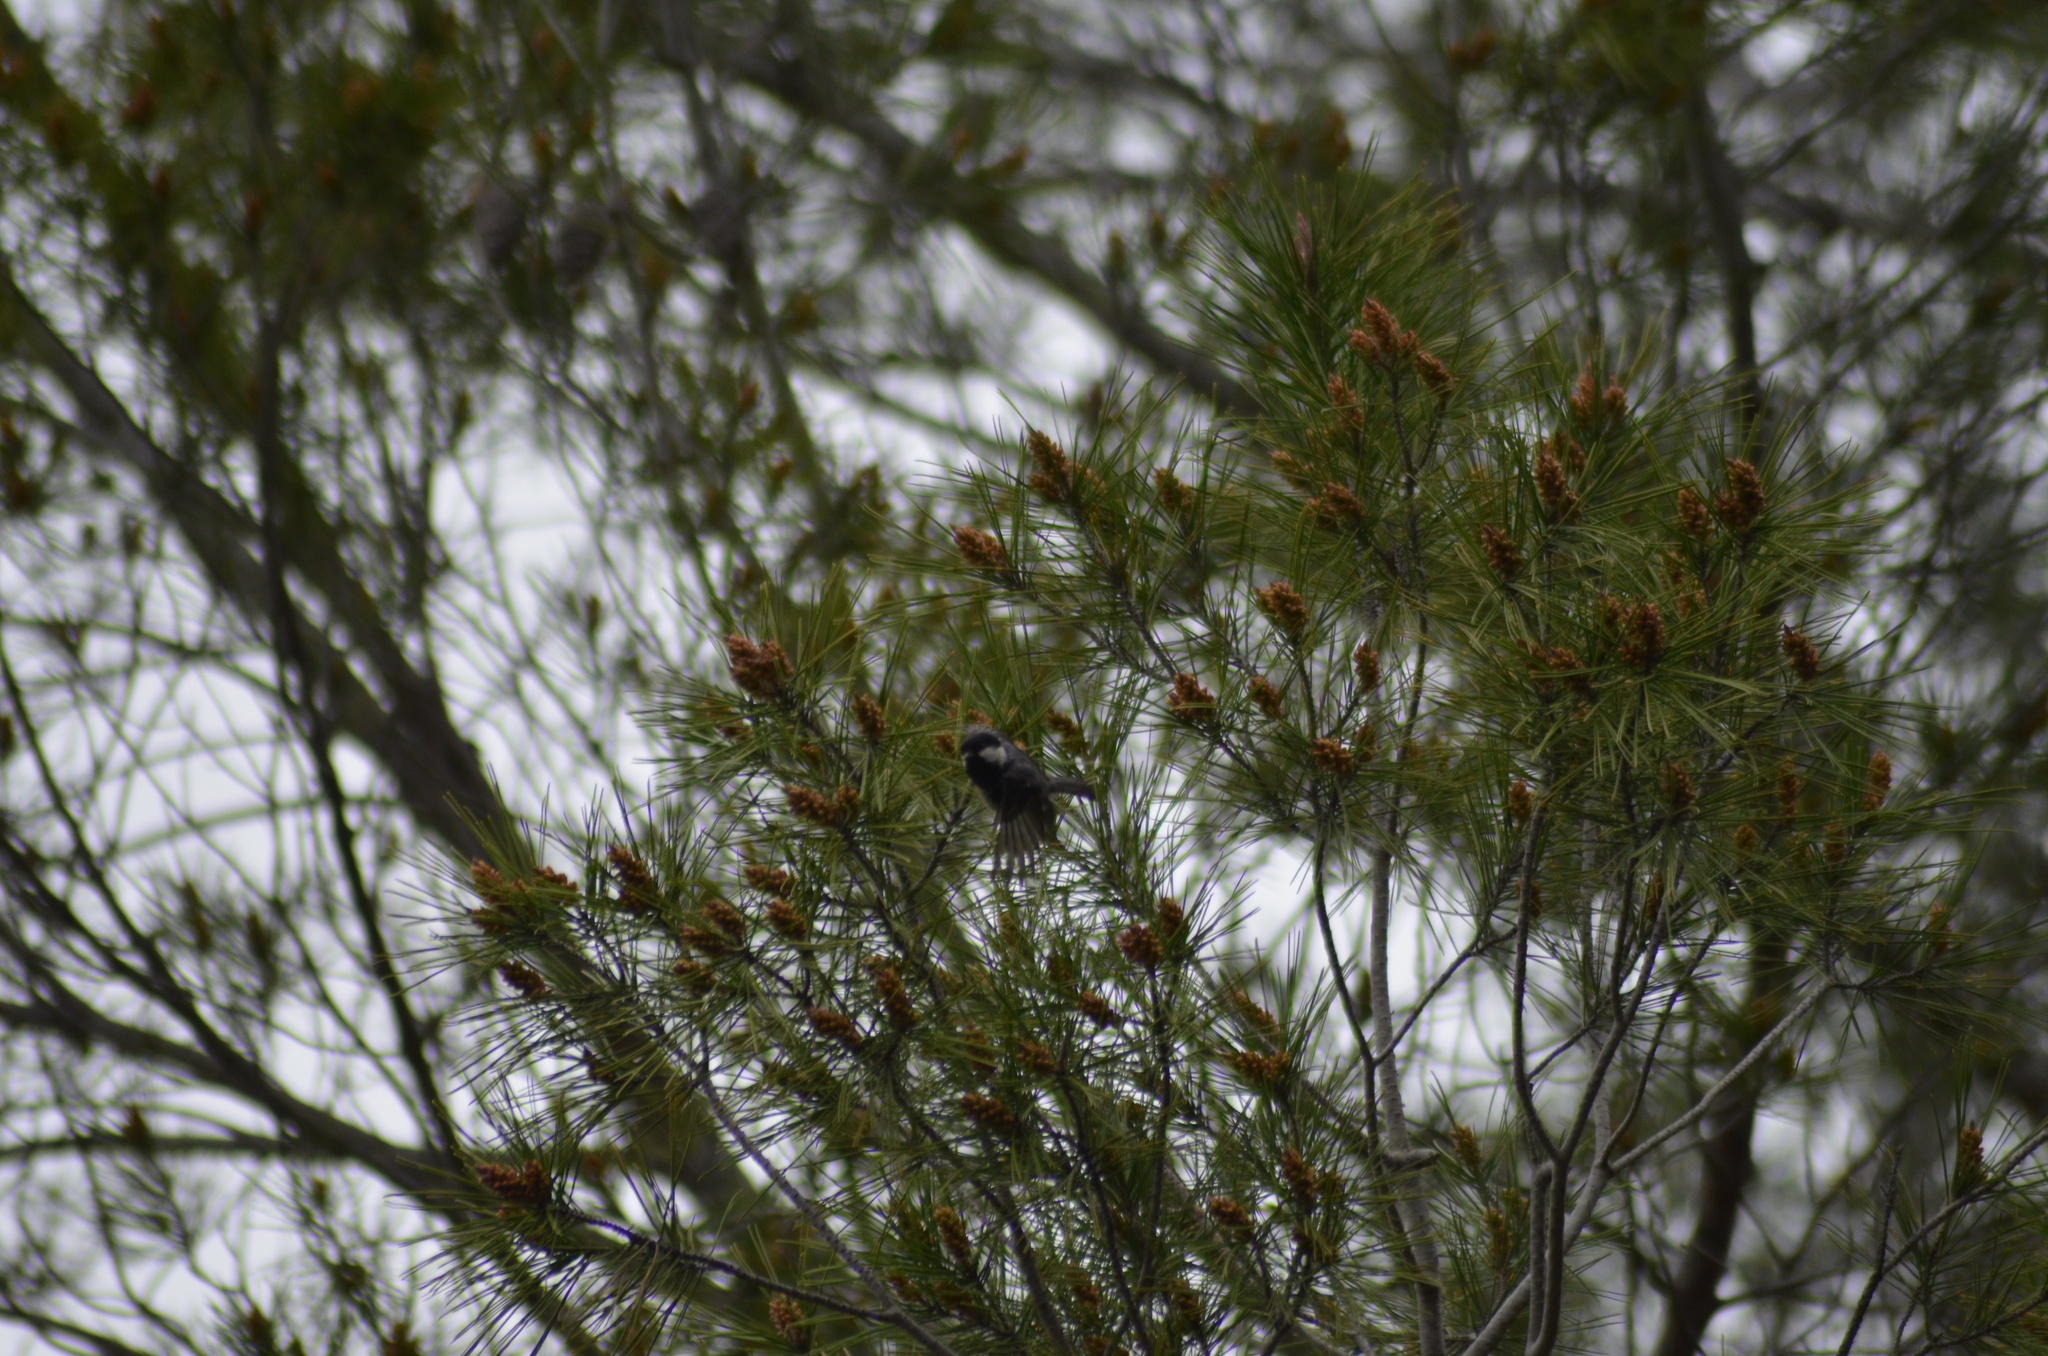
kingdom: Animalia
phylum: Chordata
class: Aves
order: Passeriformes
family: Paridae
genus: Periparus
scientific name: Periparus ater
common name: Coal tit
